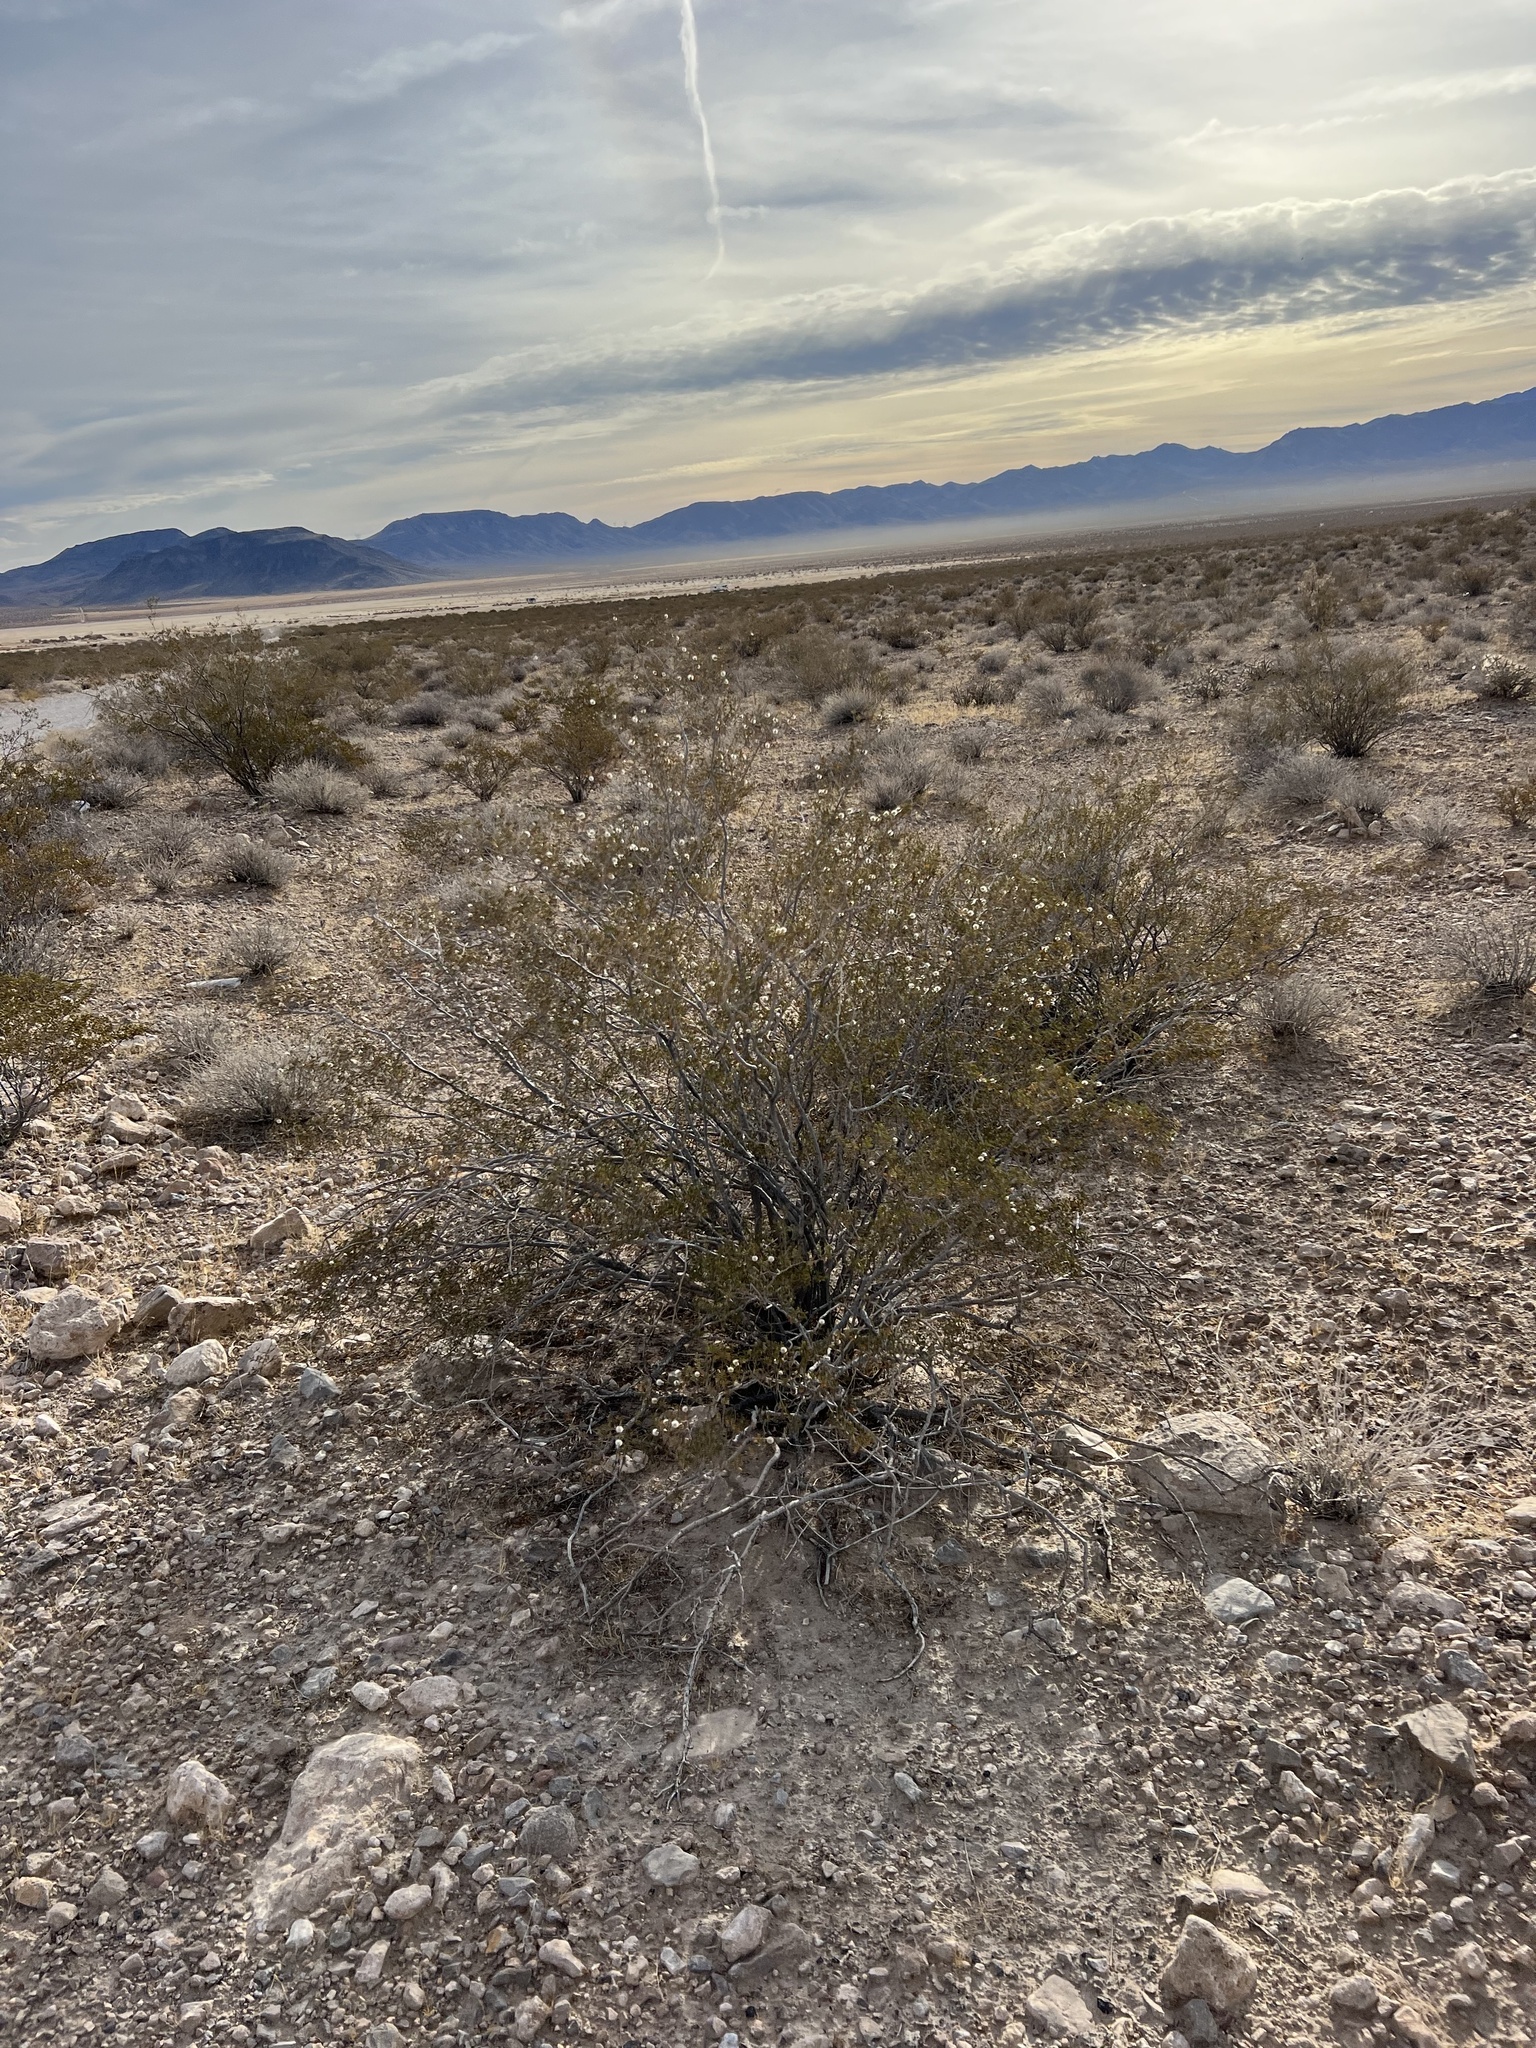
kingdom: Plantae
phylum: Tracheophyta
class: Magnoliopsida
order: Zygophyllales
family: Zygophyllaceae
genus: Larrea
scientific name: Larrea tridentata
